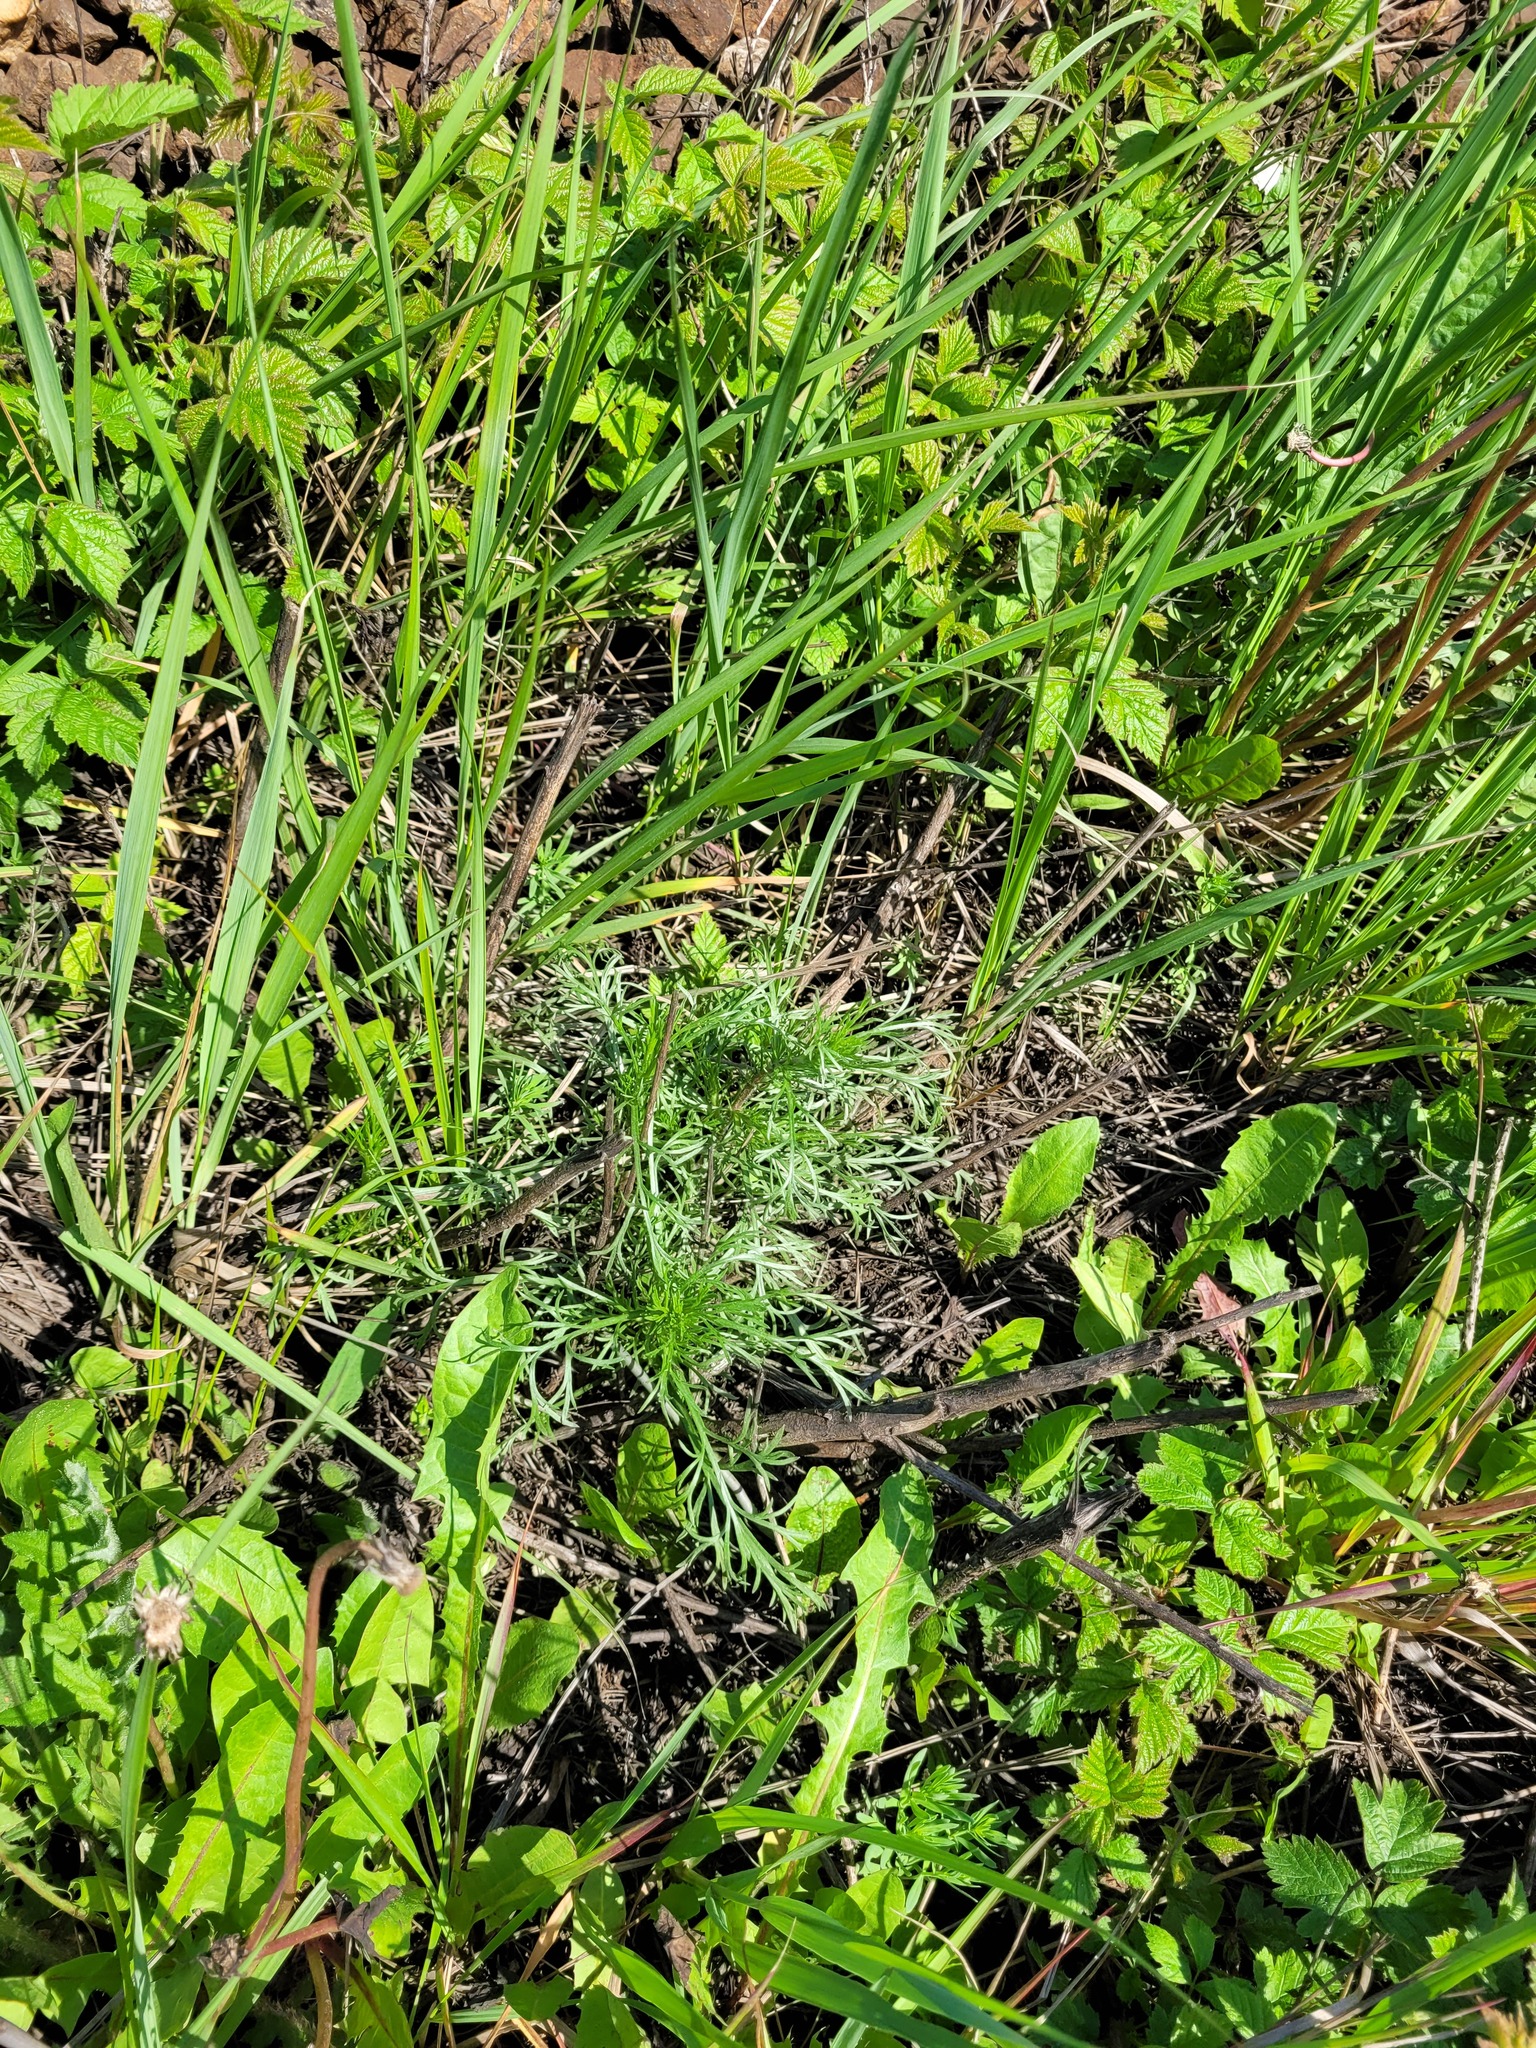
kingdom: Plantae
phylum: Tracheophyta
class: Magnoliopsida
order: Asterales
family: Asteraceae
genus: Artemisia
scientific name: Artemisia campestris
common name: Field wormwood
